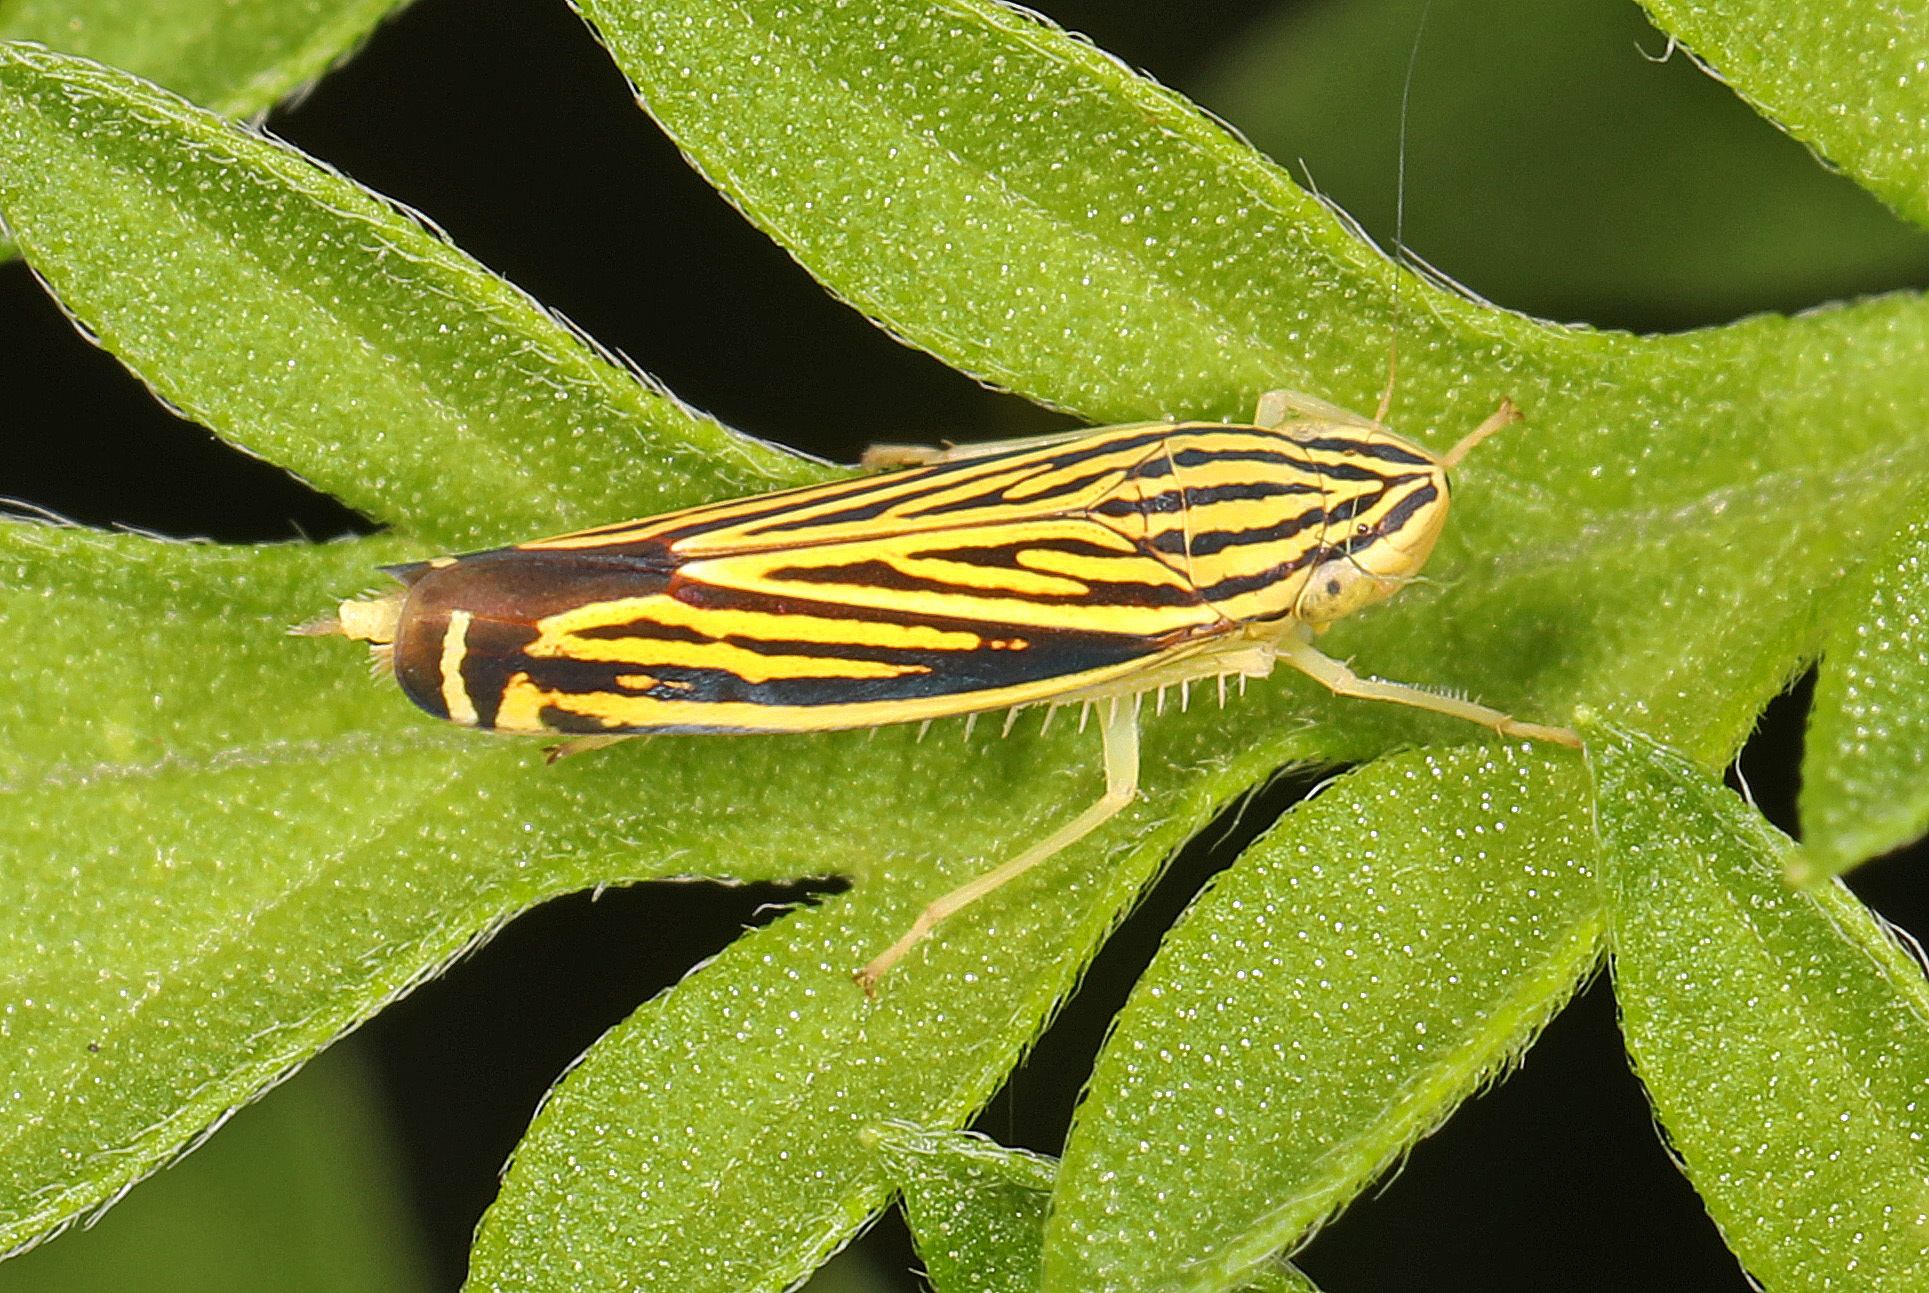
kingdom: Animalia
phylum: Arthropoda
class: Insecta
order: Hemiptera
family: Cicadellidae
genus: Sibovia
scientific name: Sibovia occatoria
